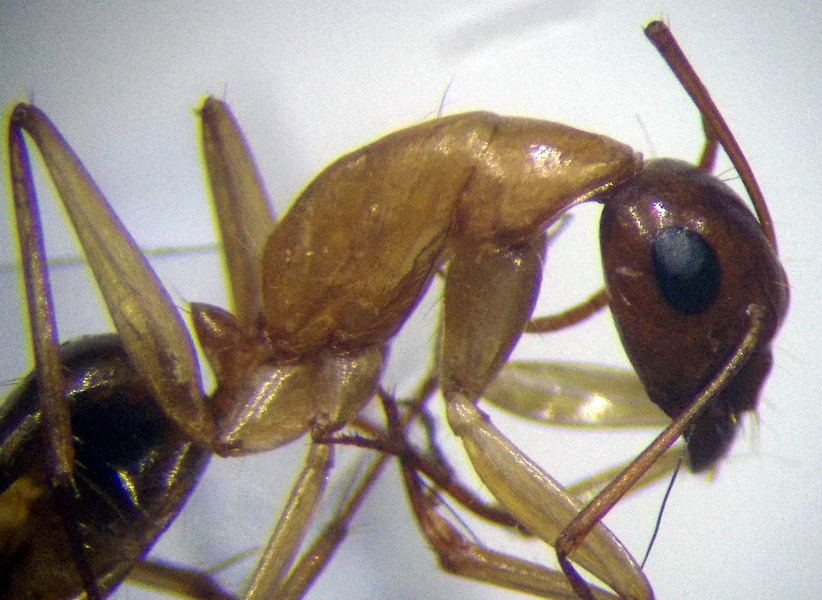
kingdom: Animalia
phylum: Arthropoda
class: Insecta
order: Hymenoptera
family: Formicidae
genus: Camponotus
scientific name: Camponotus turkestanus
